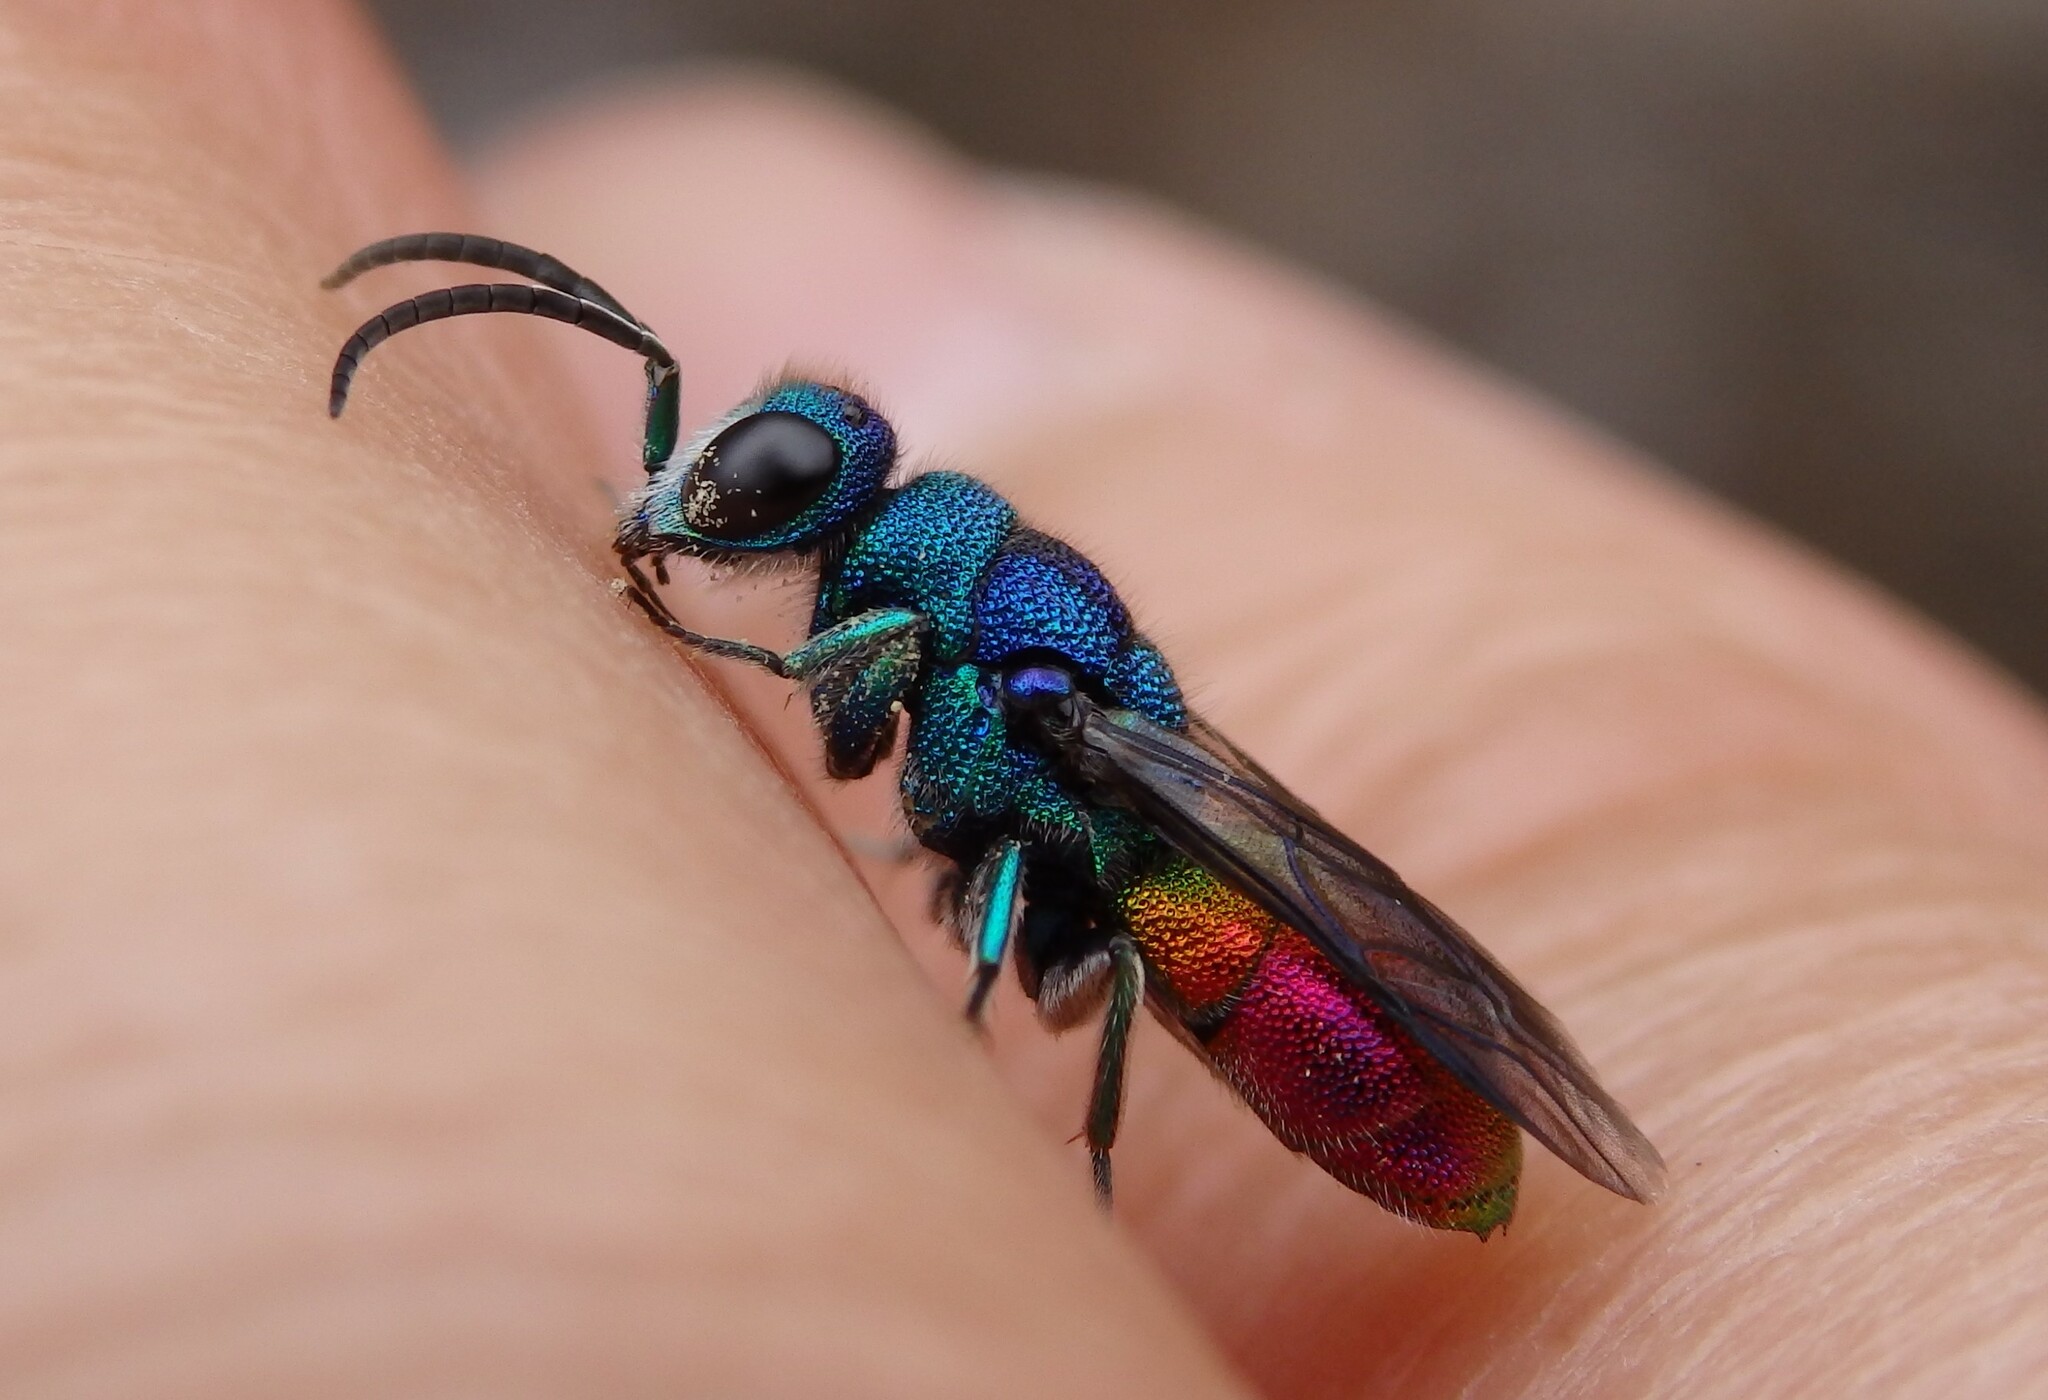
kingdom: Animalia
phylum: Arthropoda
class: Insecta
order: Hymenoptera
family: Chrysididae
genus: Chrysis
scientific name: Chrysis comparata
